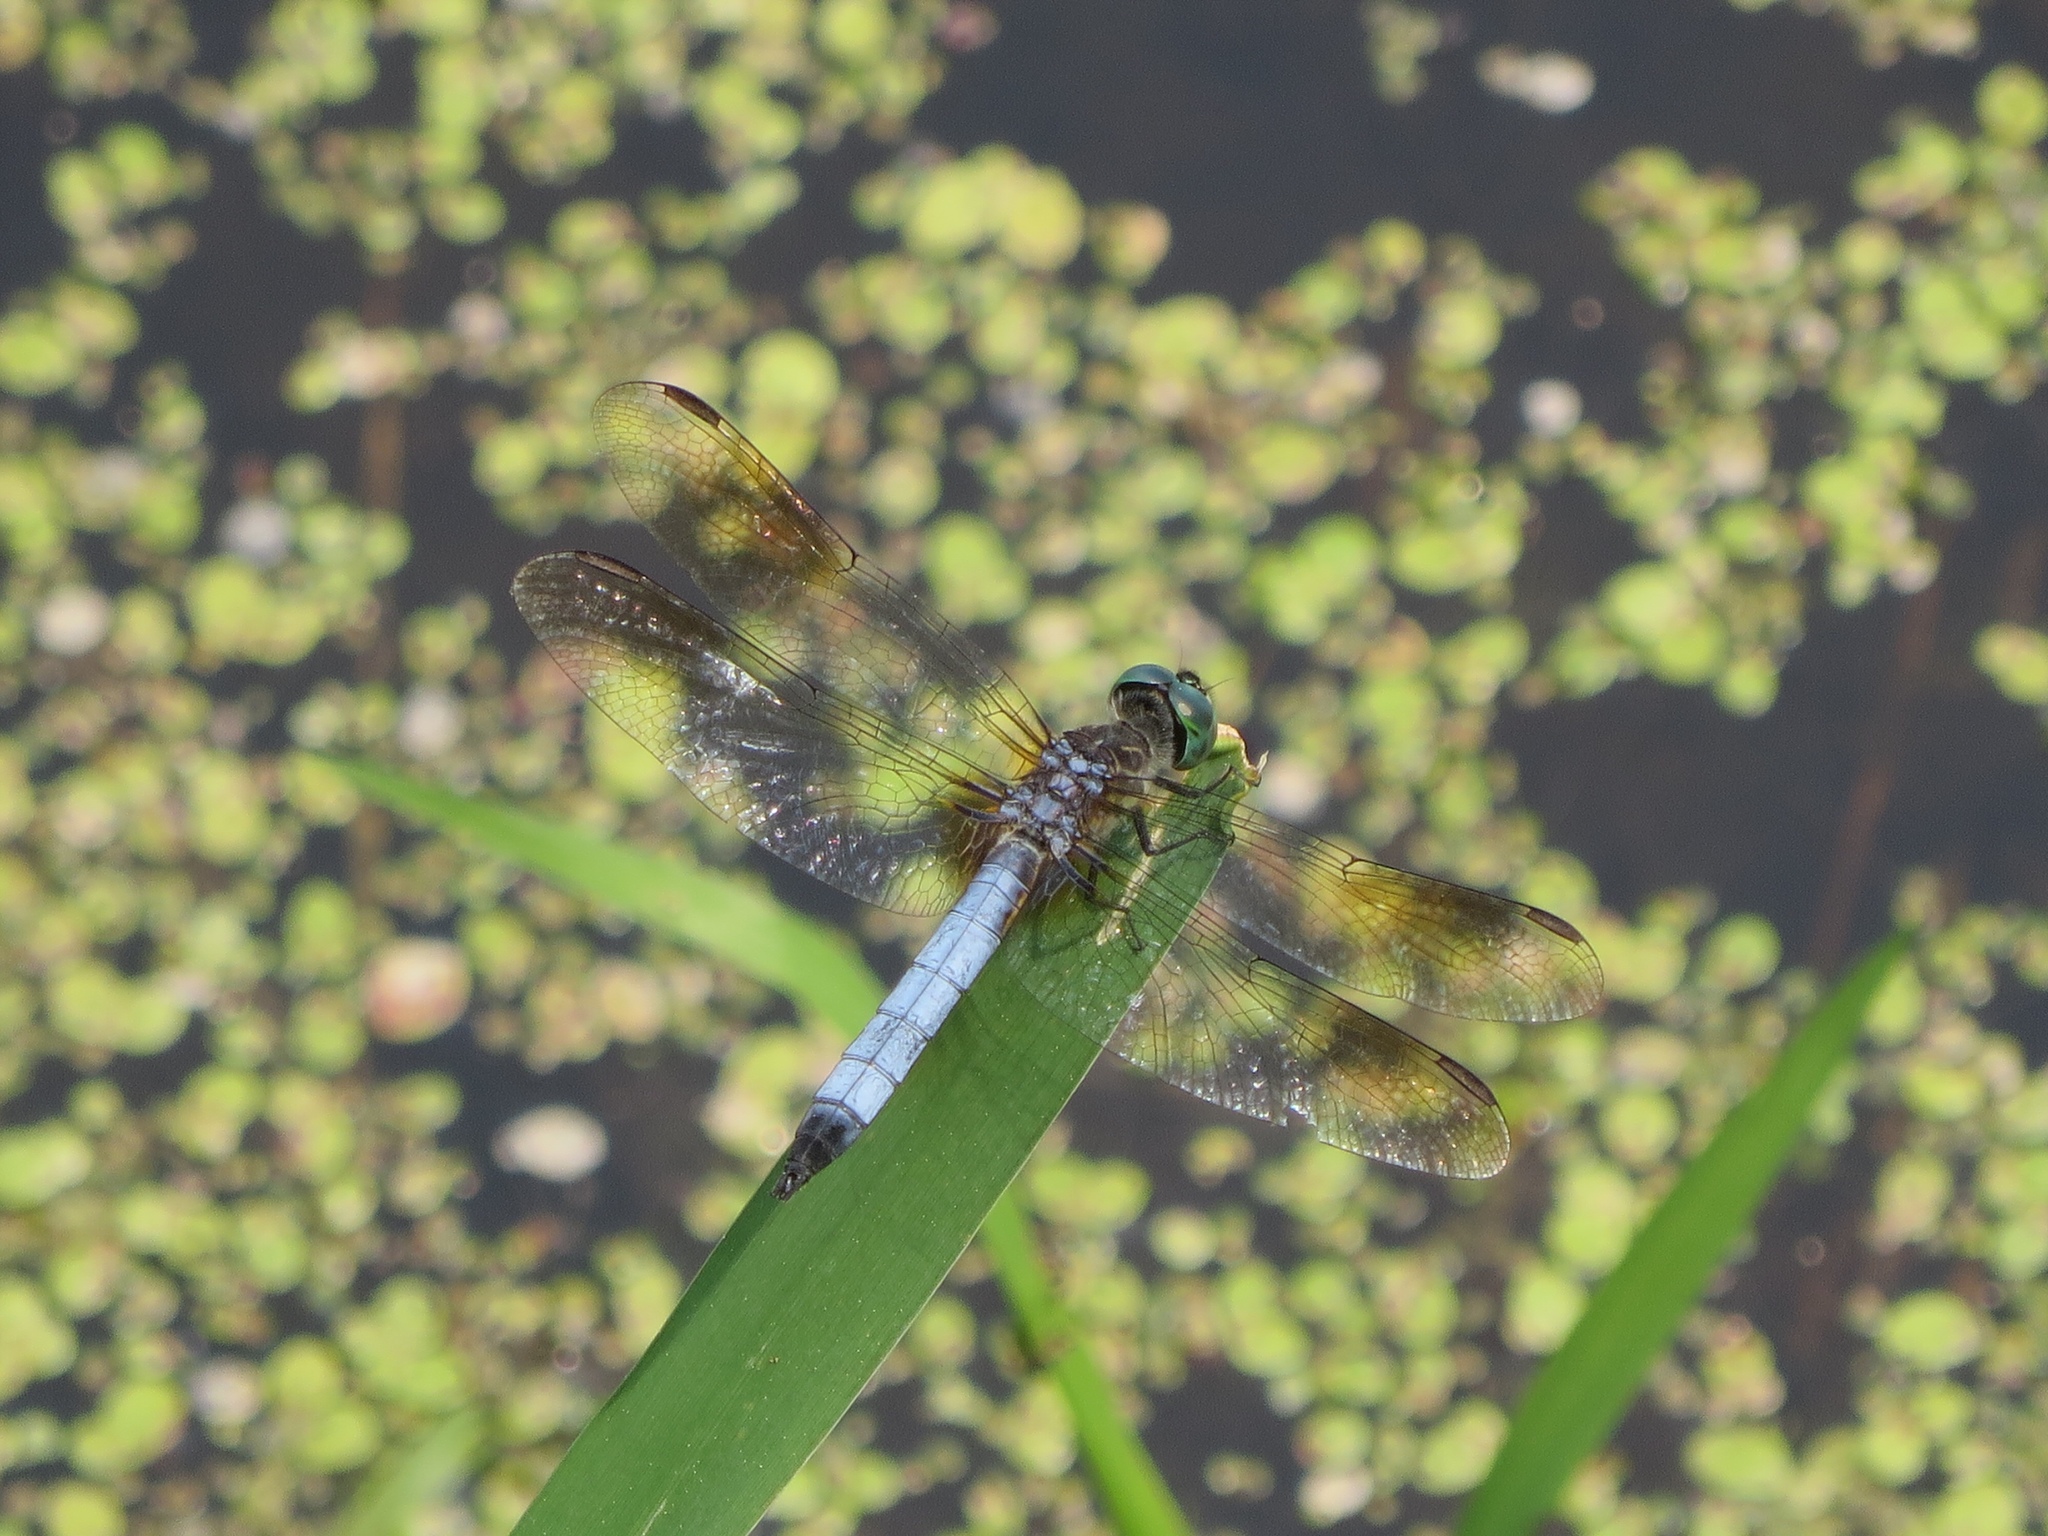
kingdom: Animalia
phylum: Arthropoda
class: Insecta
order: Odonata
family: Libellulidae
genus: Pachydiplax
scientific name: Pachydiplax longipennis
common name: Blue dasher
